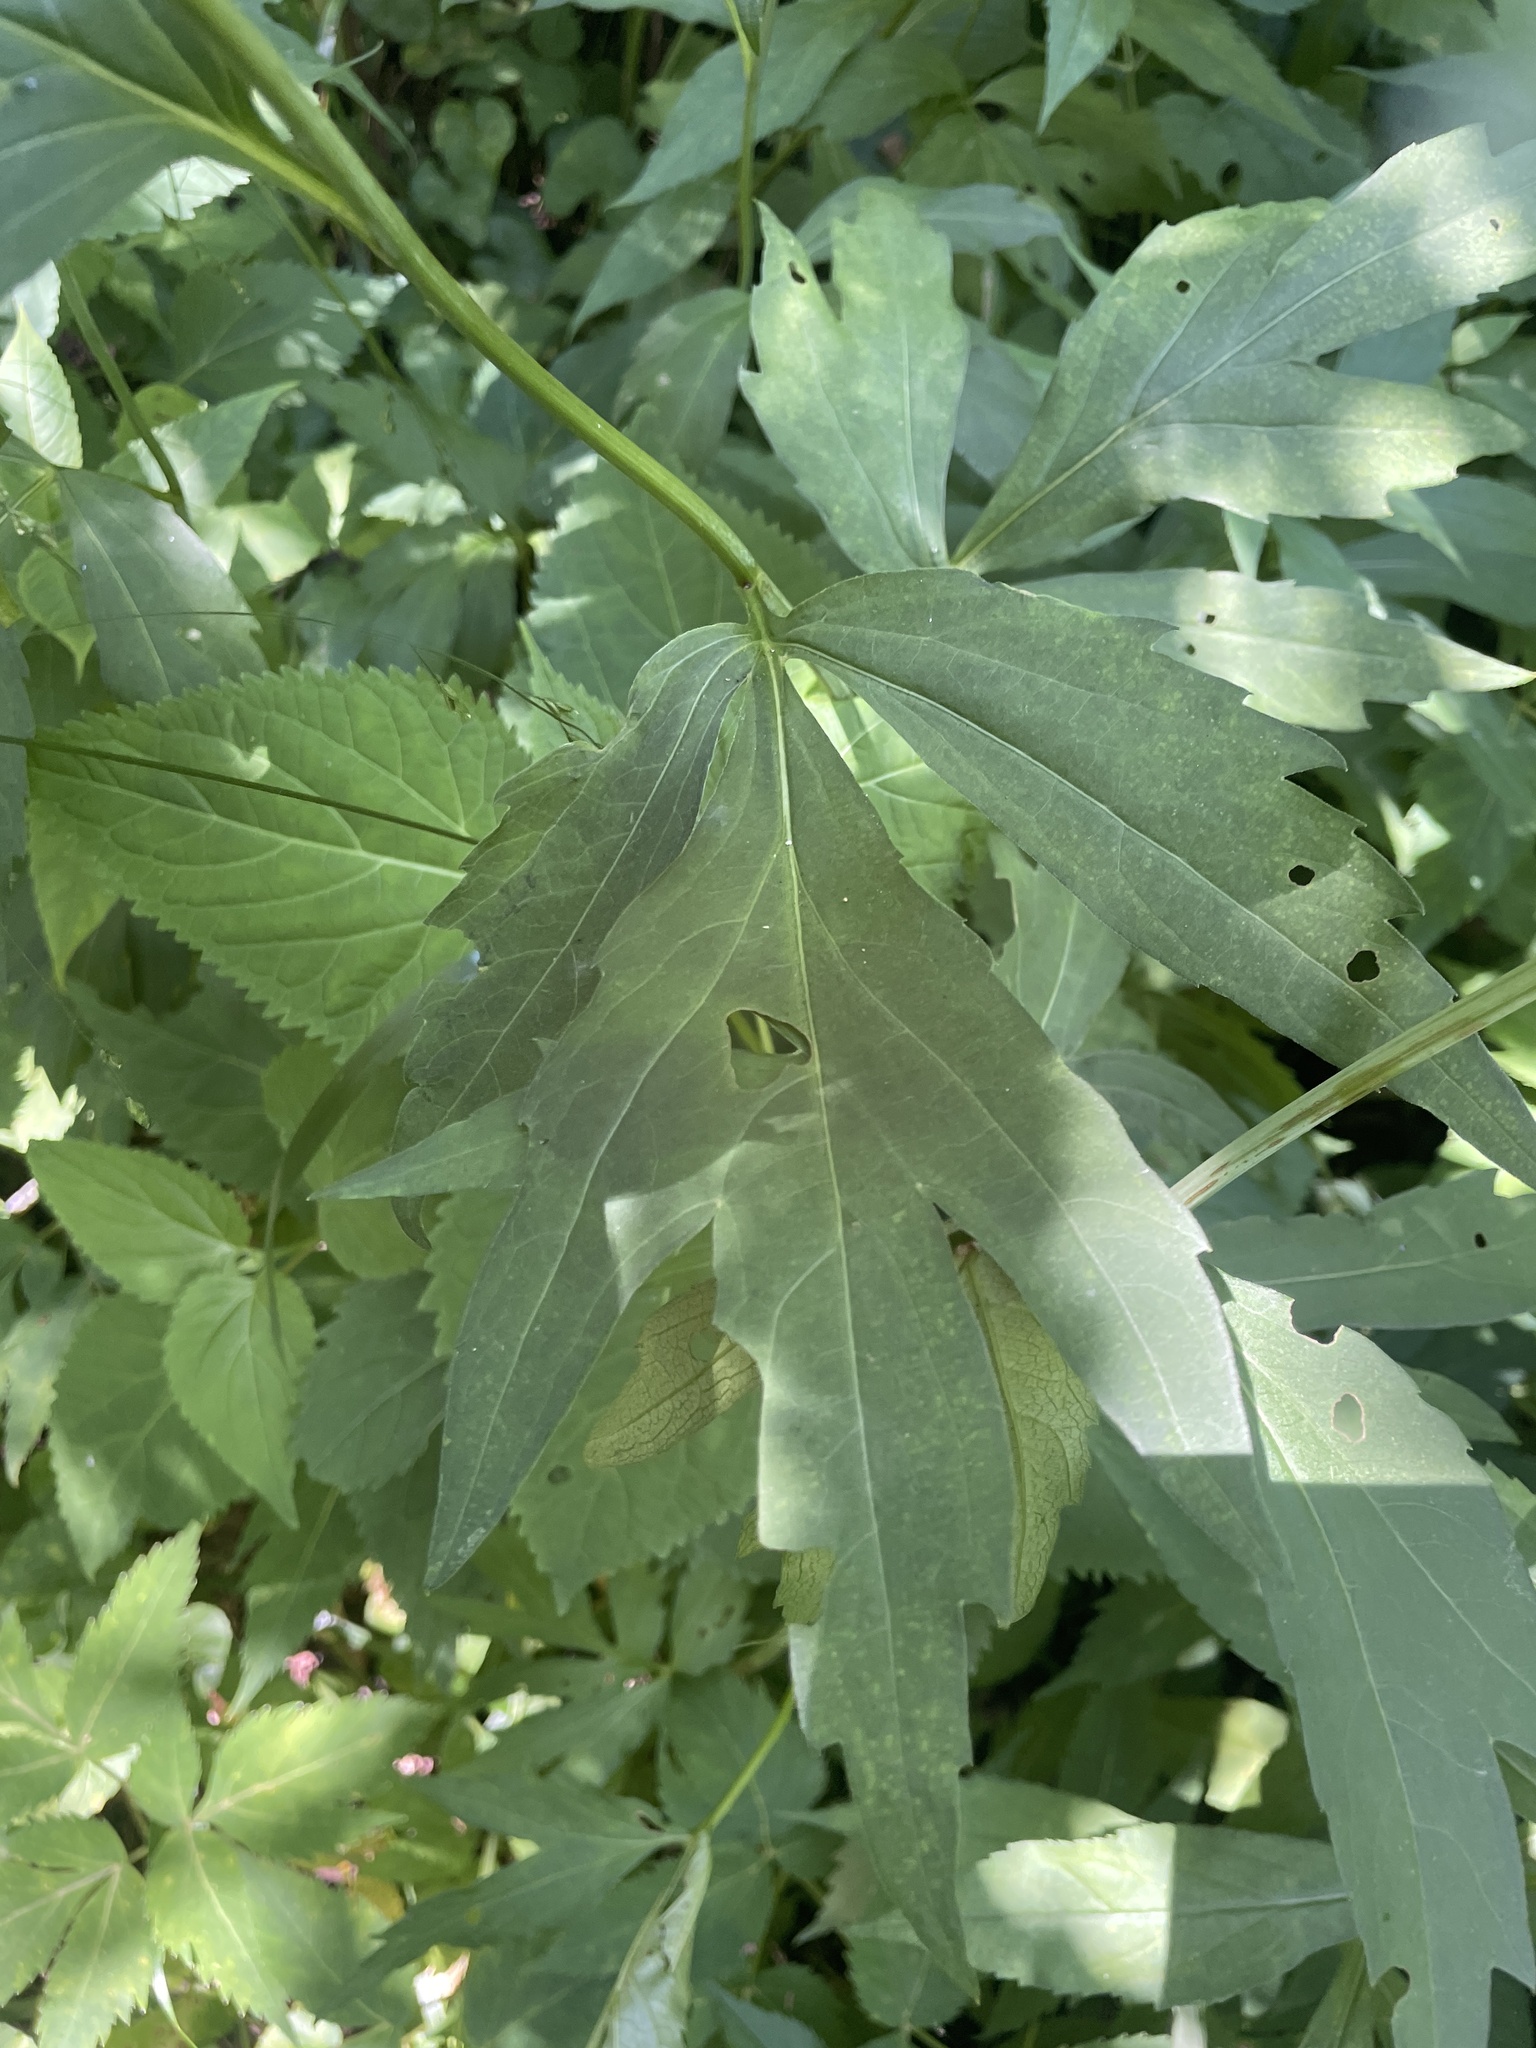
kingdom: Plantae
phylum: Tracheophyta
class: Magnoliopsida
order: Asterales
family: Asteraceae
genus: Rudbeckia
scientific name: Rudbeckia laciniata
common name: Coneflower
